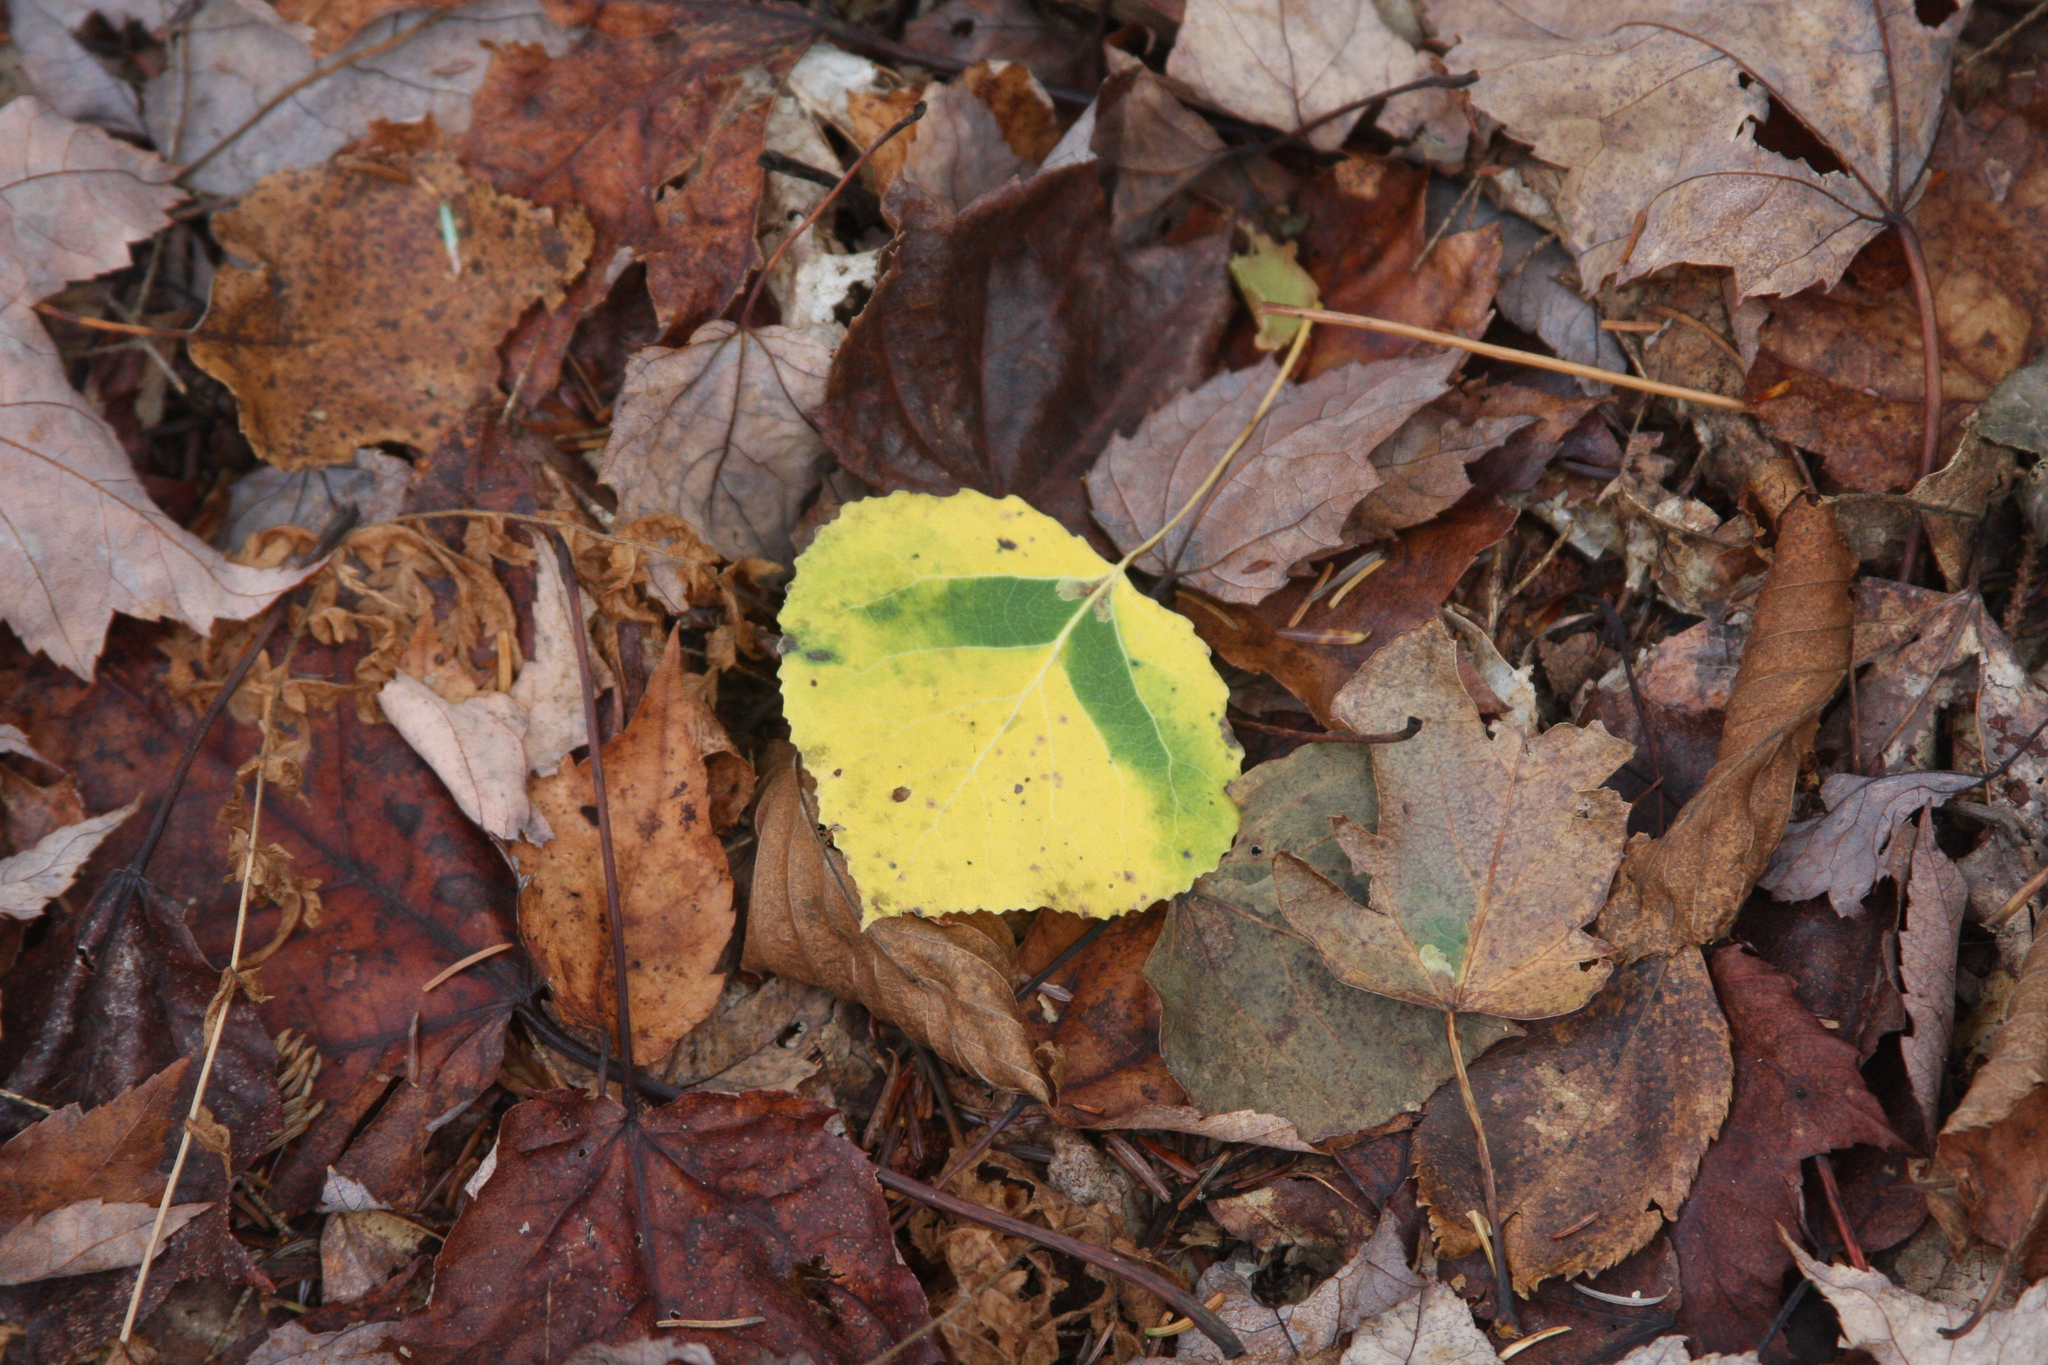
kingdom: Plantae
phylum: Tracheophyta
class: Magnoliopsida
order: Malpighiales
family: Salicaceae
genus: Populus
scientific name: Populus tremuloides
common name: Quaking aspen
